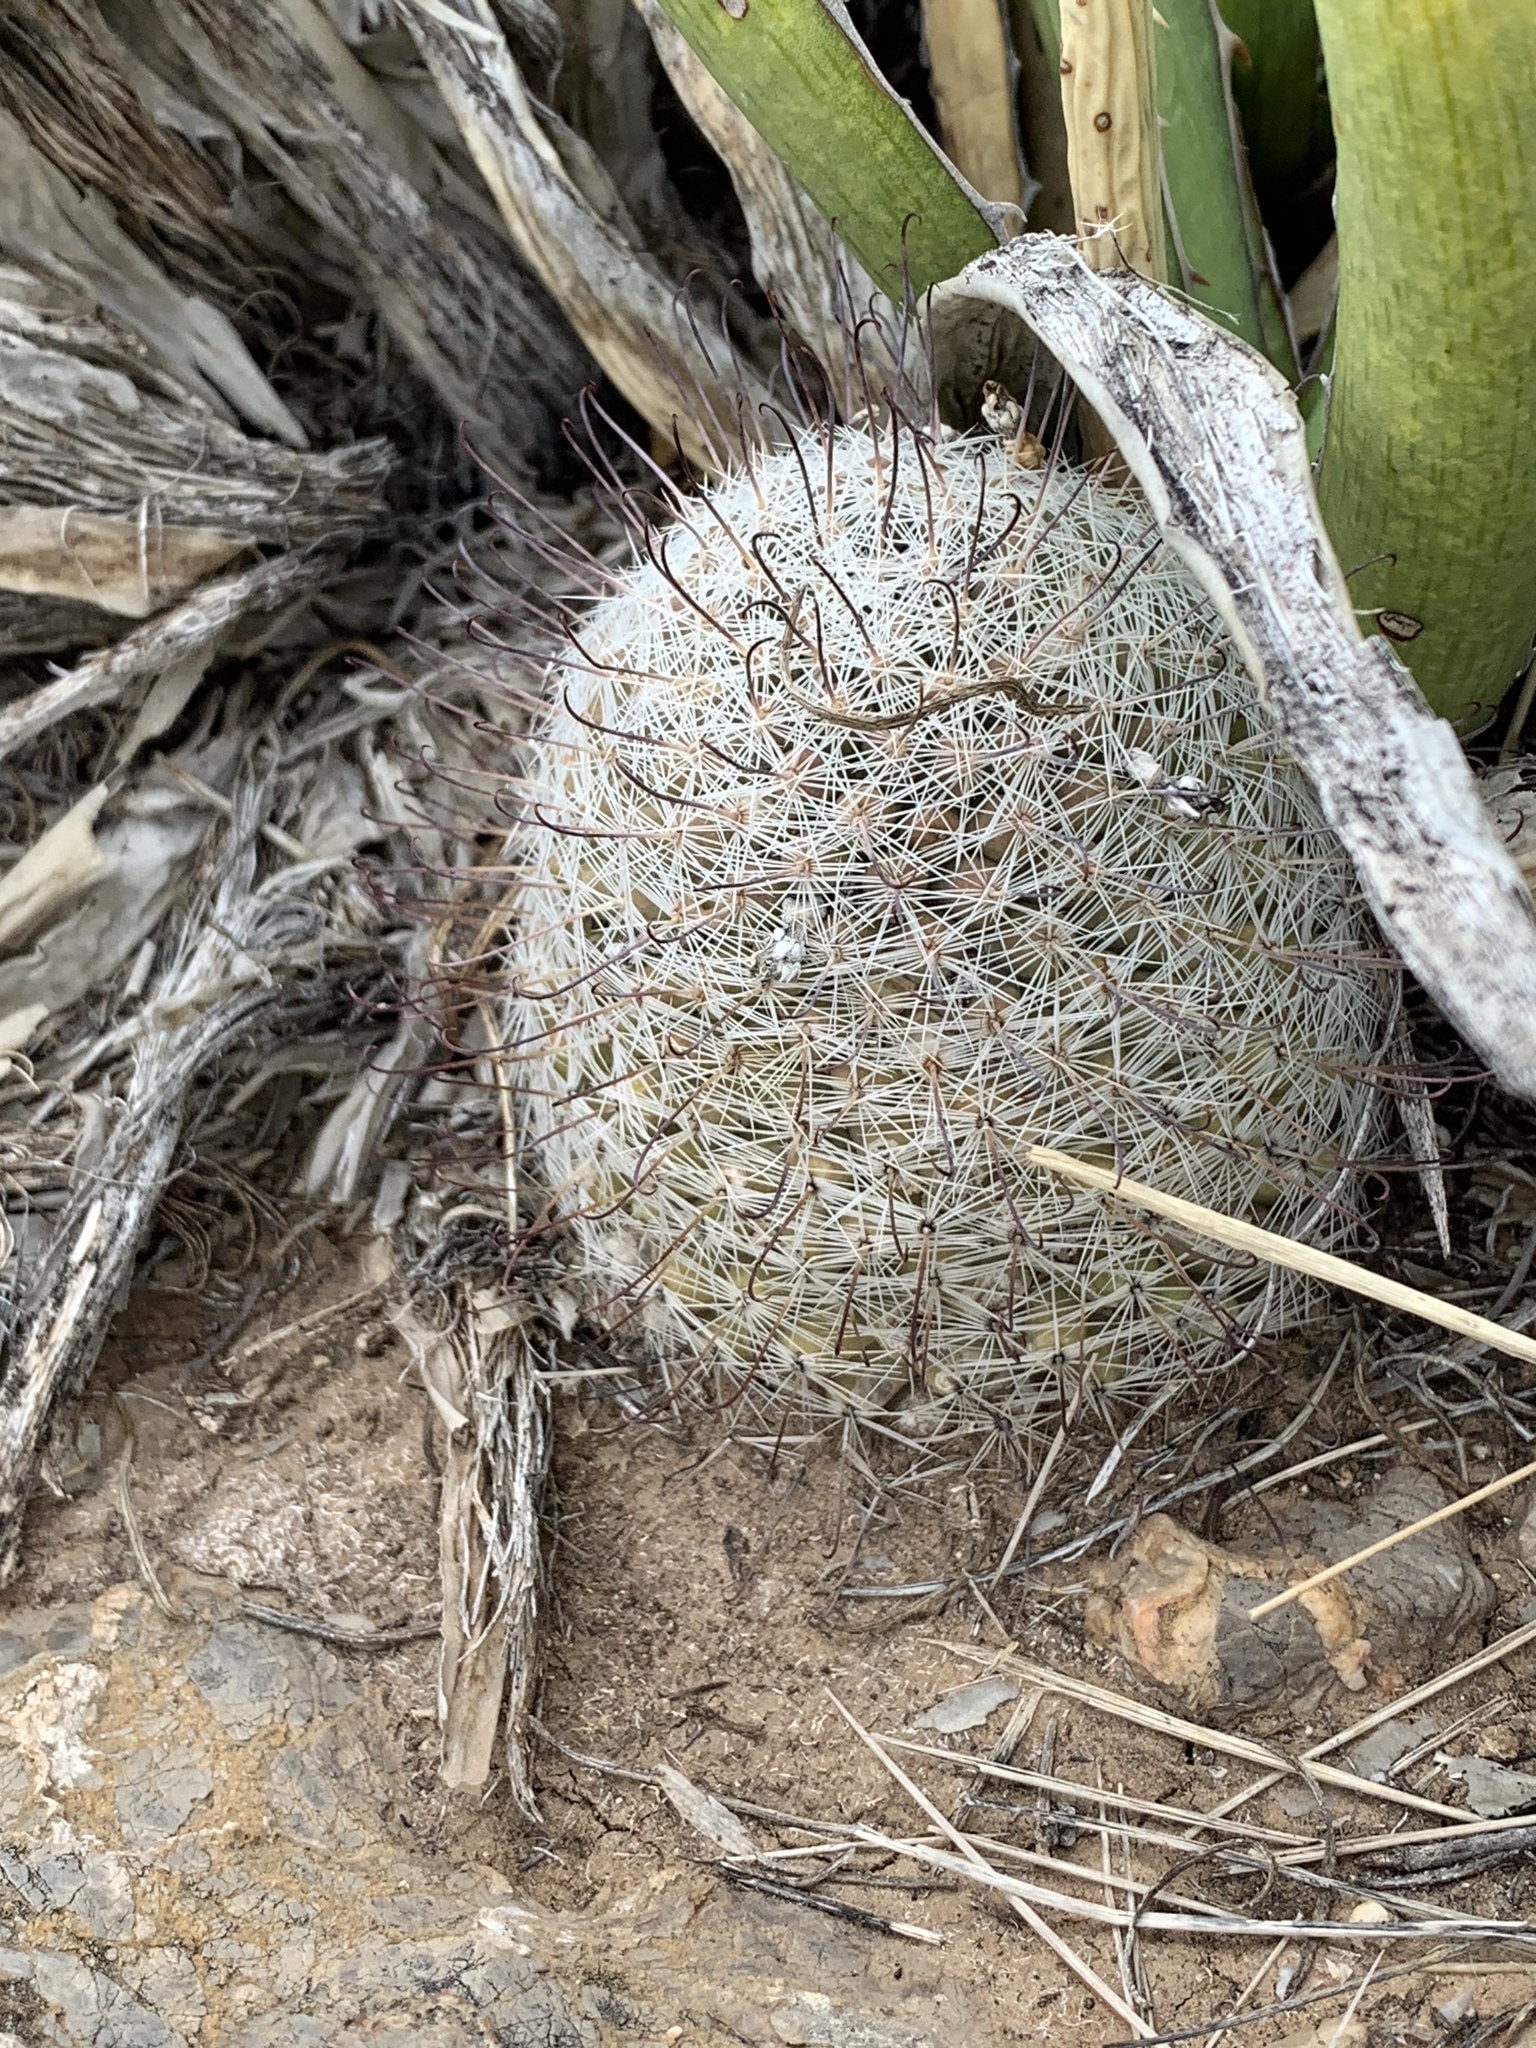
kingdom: Plantae
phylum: Tracheophyta
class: Magnoliopsida
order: Caryophyllales
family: Cactaceae
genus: Cochemiea
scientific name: Cochemiea grahamii
